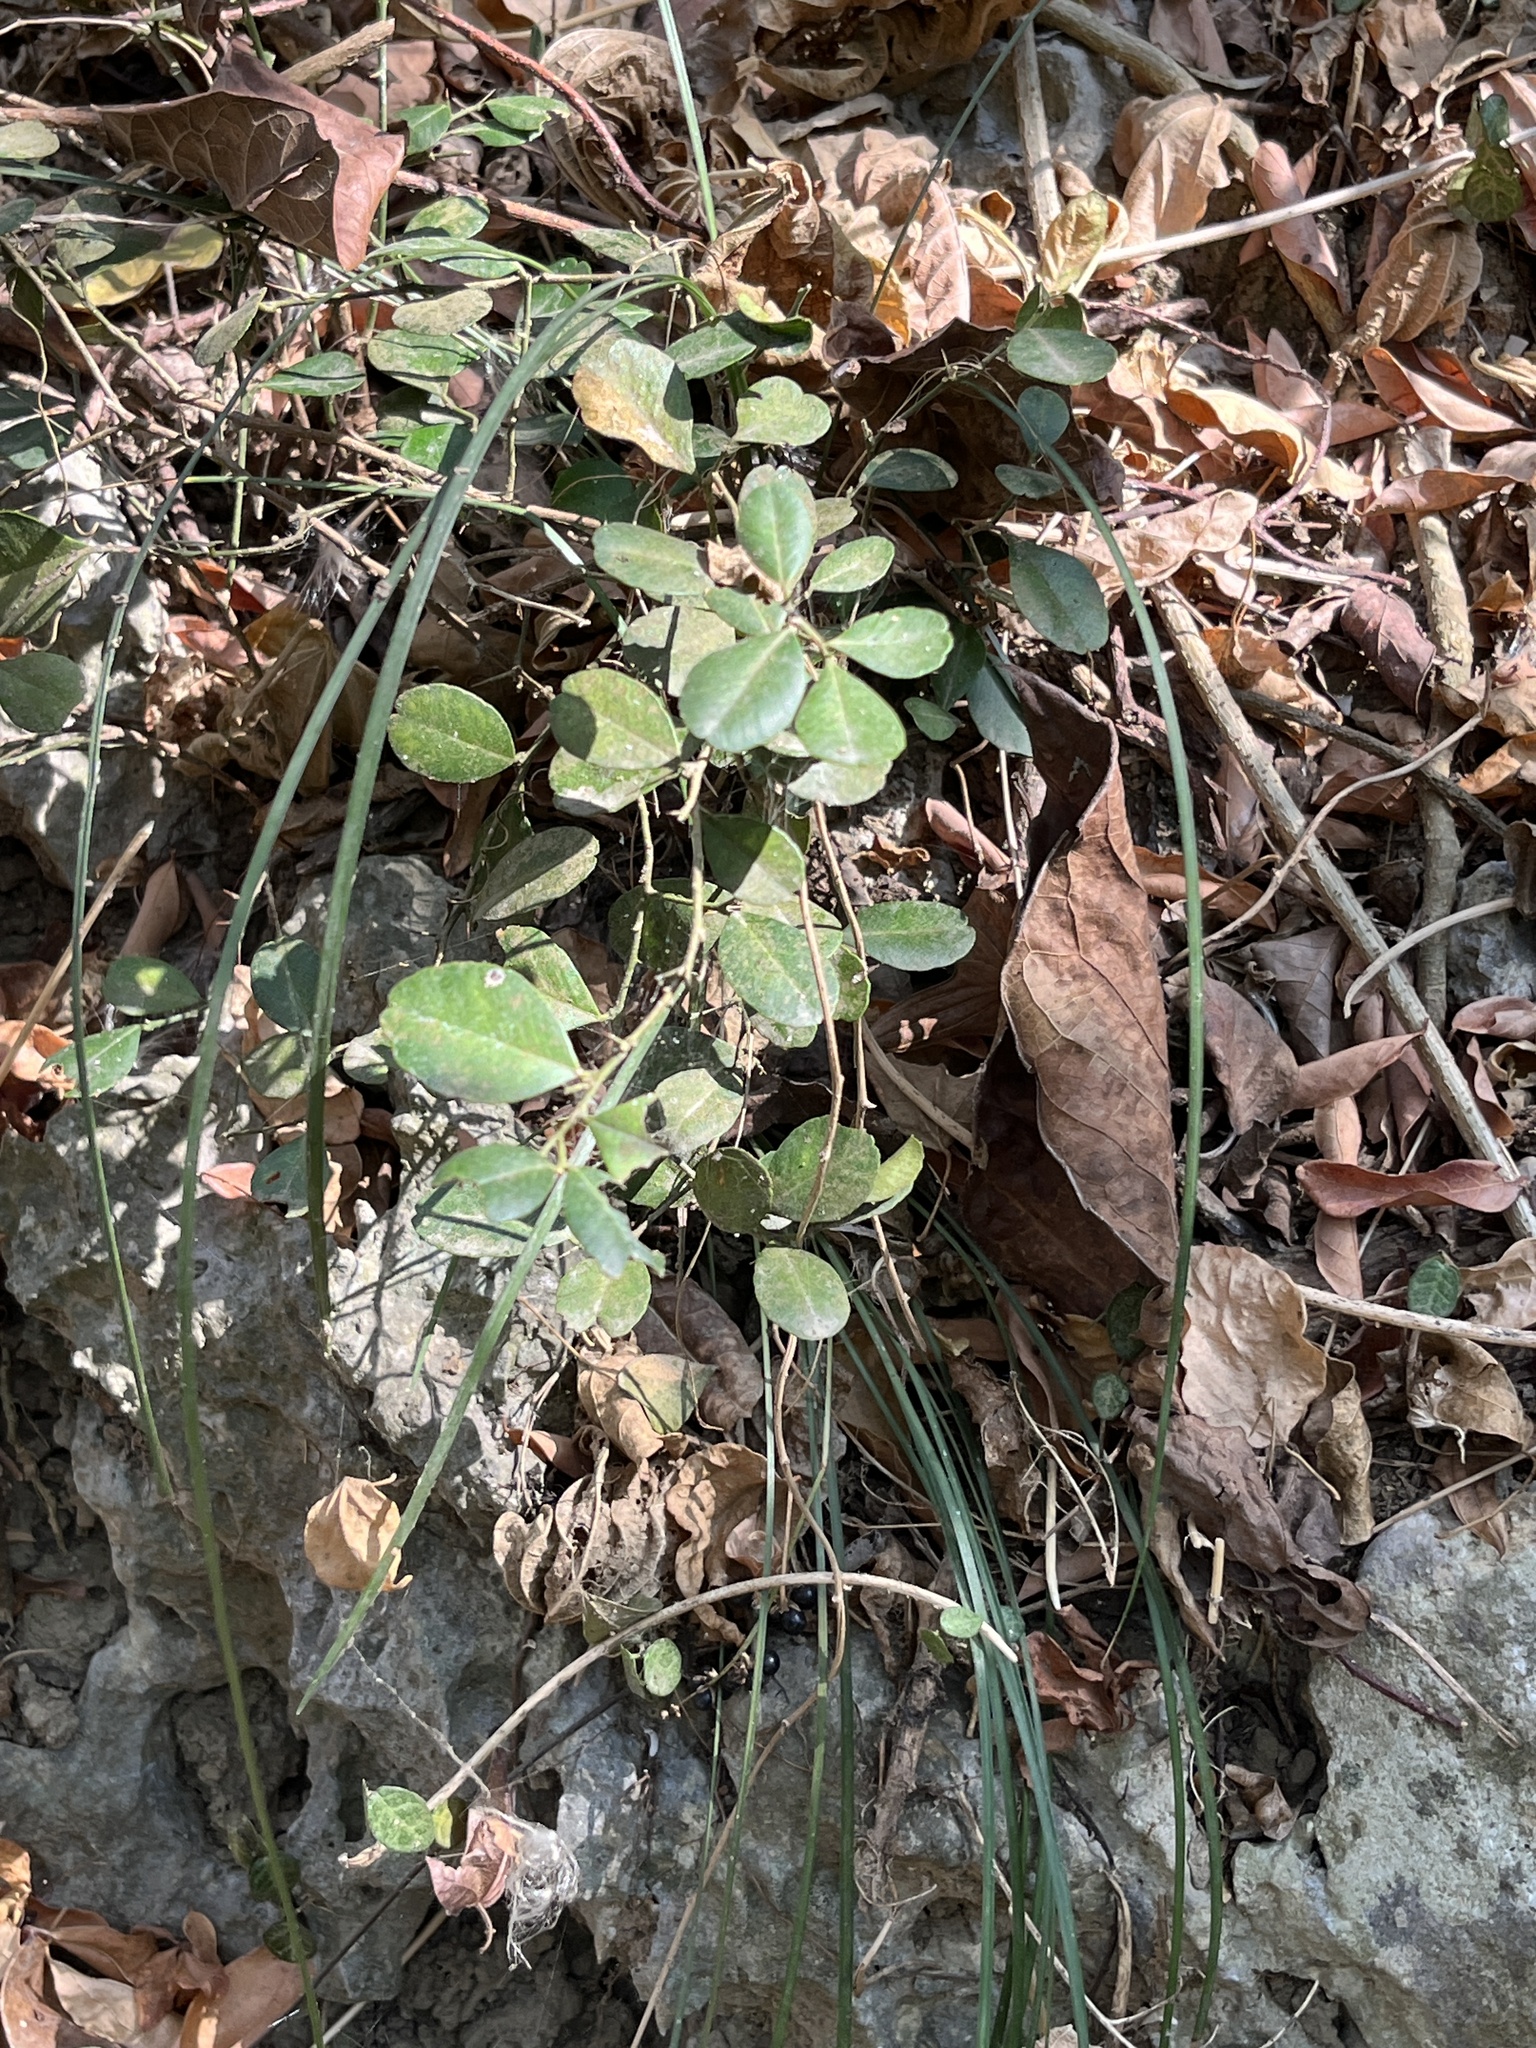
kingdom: Plantae
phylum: Tracheophyta
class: Magnoliopsida
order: Sapindales
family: Rutaceae
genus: Atalantia
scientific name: Atalantia buxifolia
